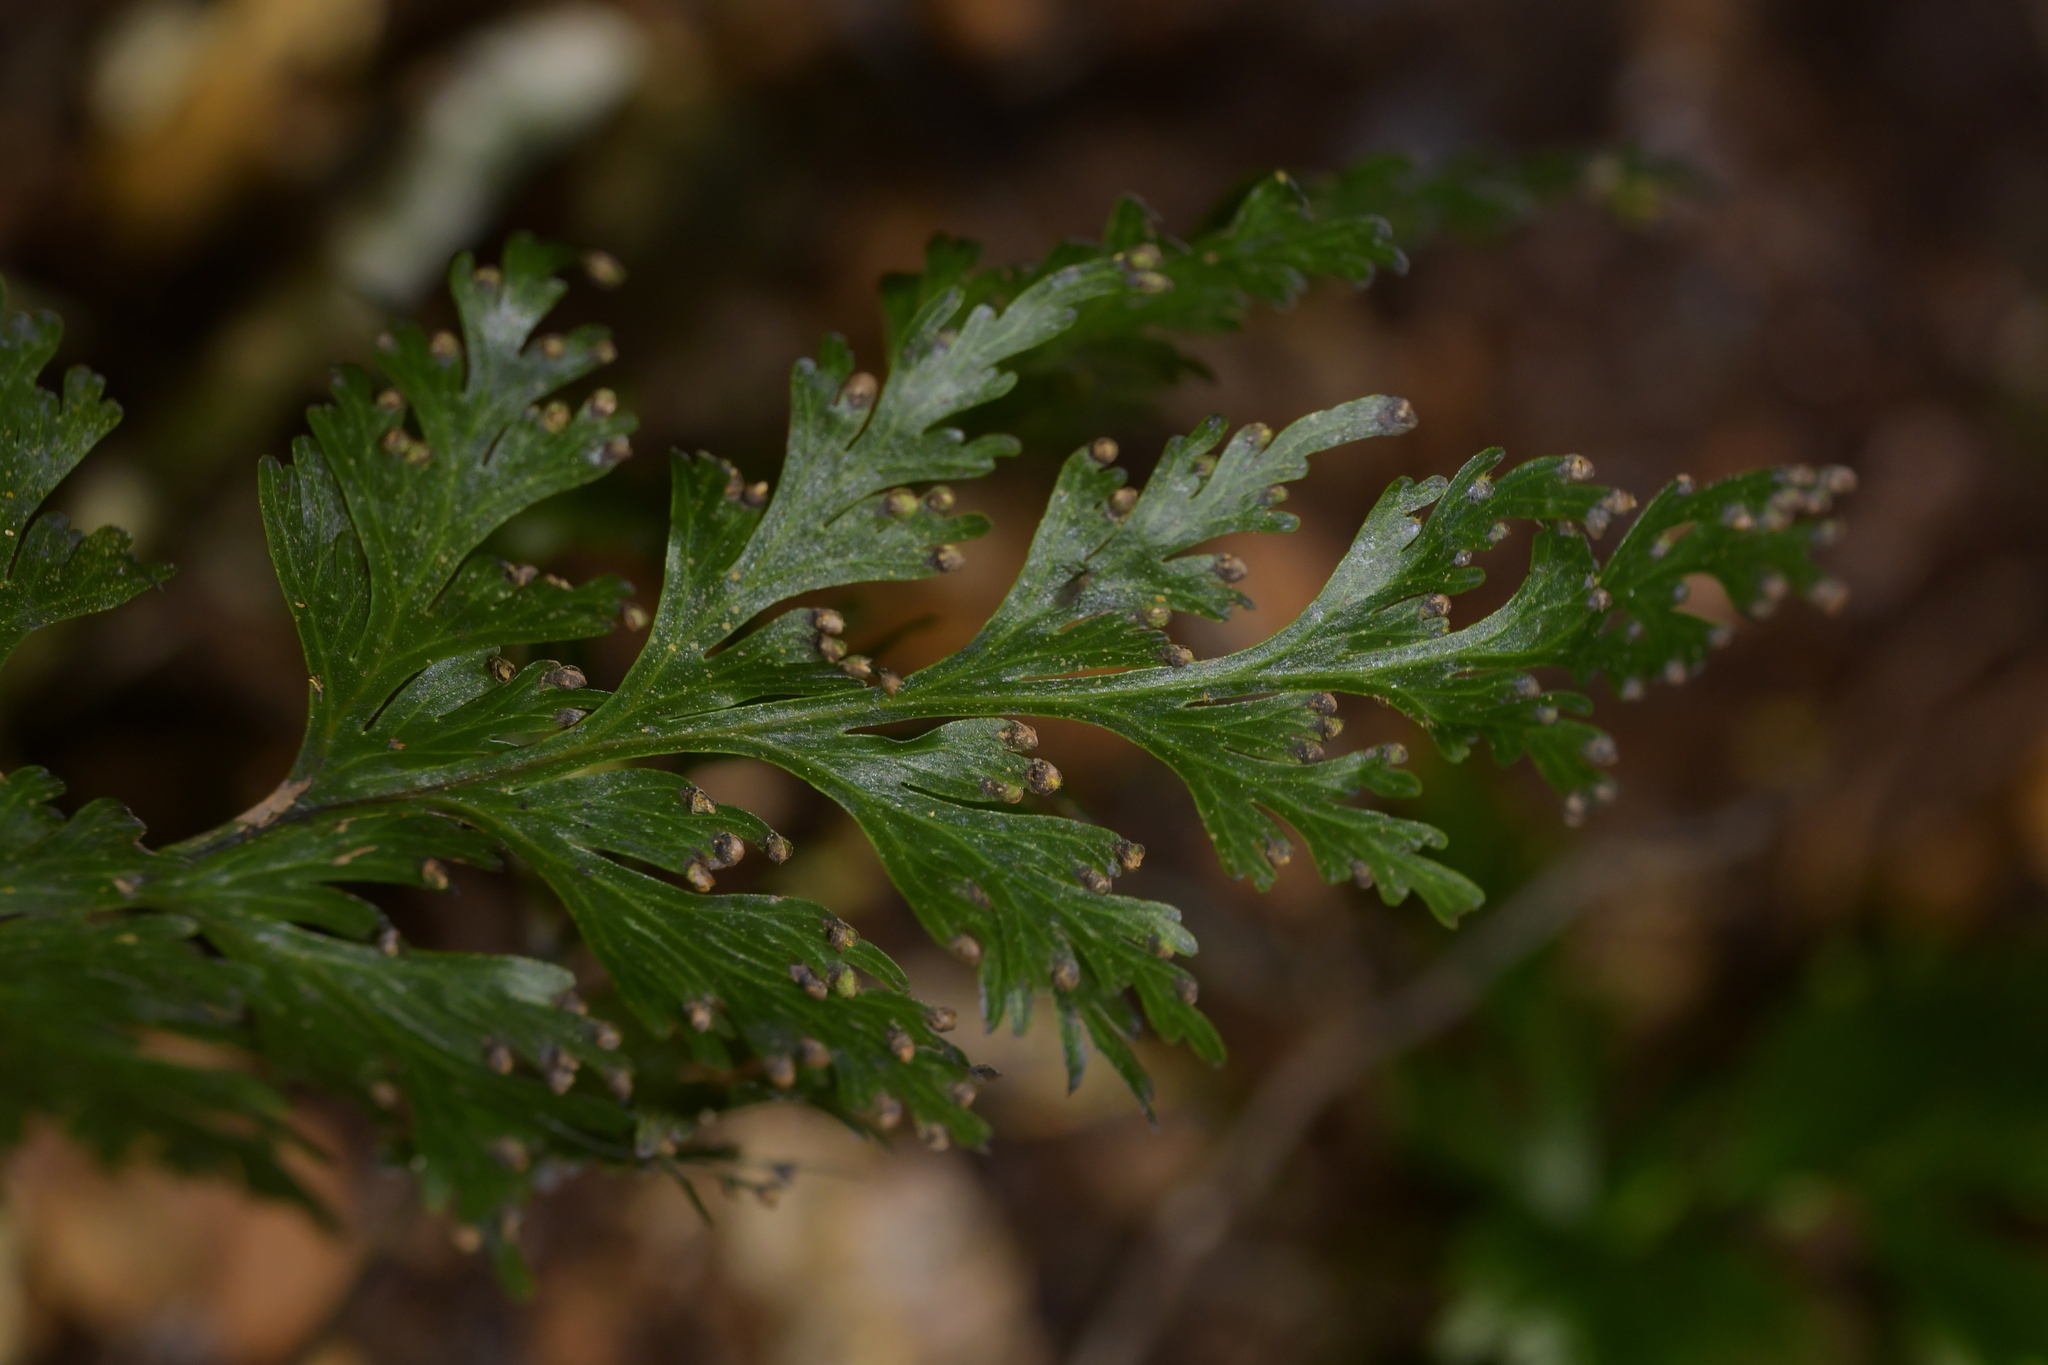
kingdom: Plantae
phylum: Tracheophyta
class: Polypodiopsida
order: Hymenophyllales
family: Hymenophyllaceae
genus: Hymenophyllum
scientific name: Hymenophyllum dilatatum
